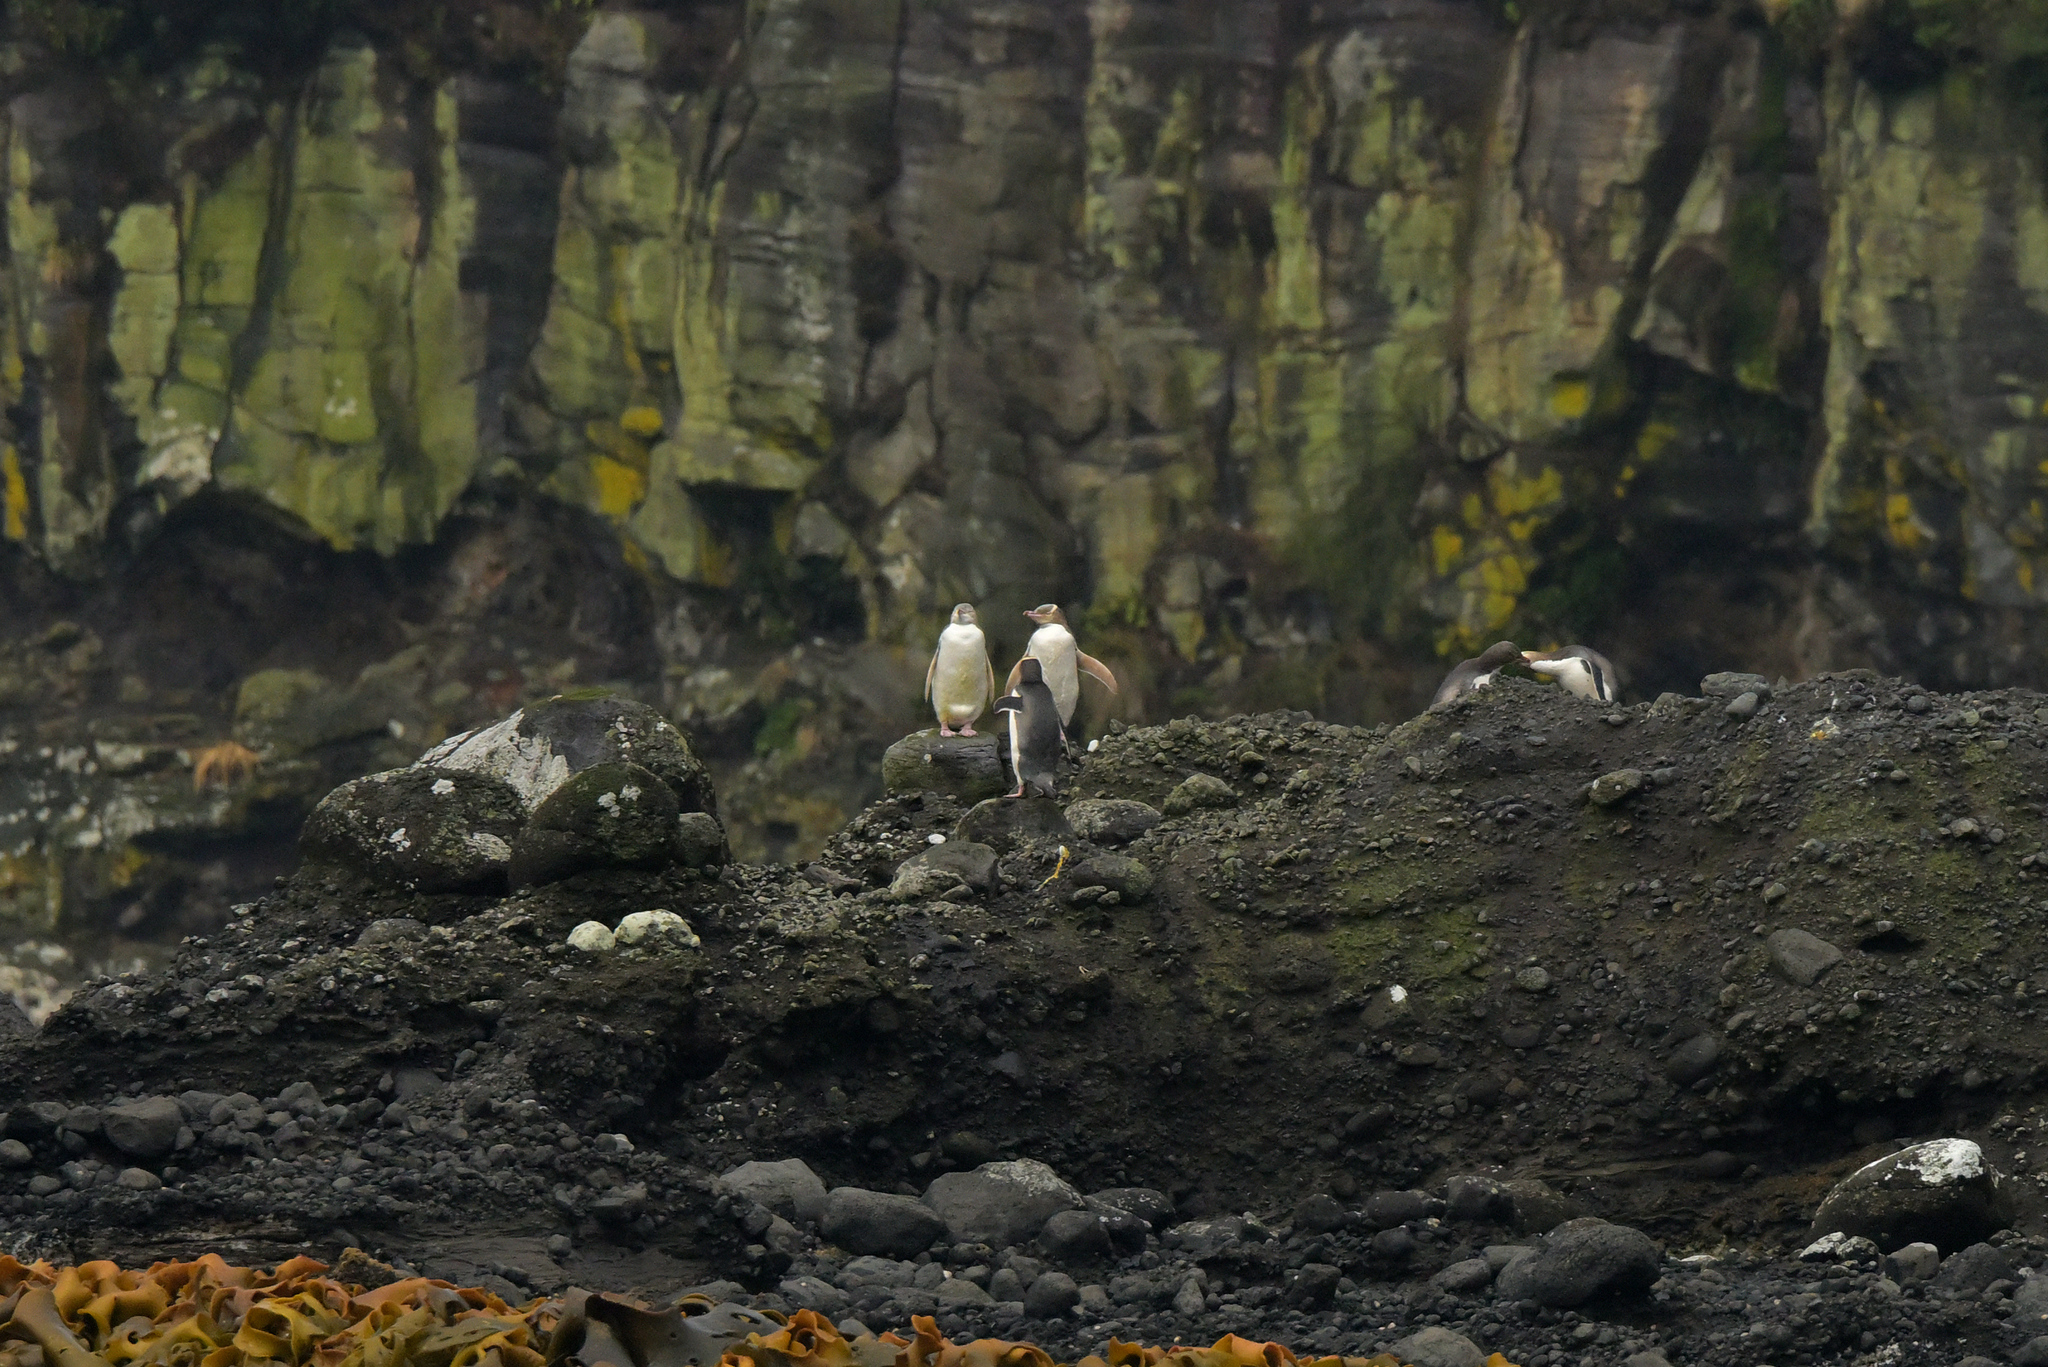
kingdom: Animalia
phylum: Chordata
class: Aves
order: Sphenisciformes
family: Spheniscidae
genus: Megadyptes
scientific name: Megadyptes antipodes
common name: Yellow-eyed penguin
